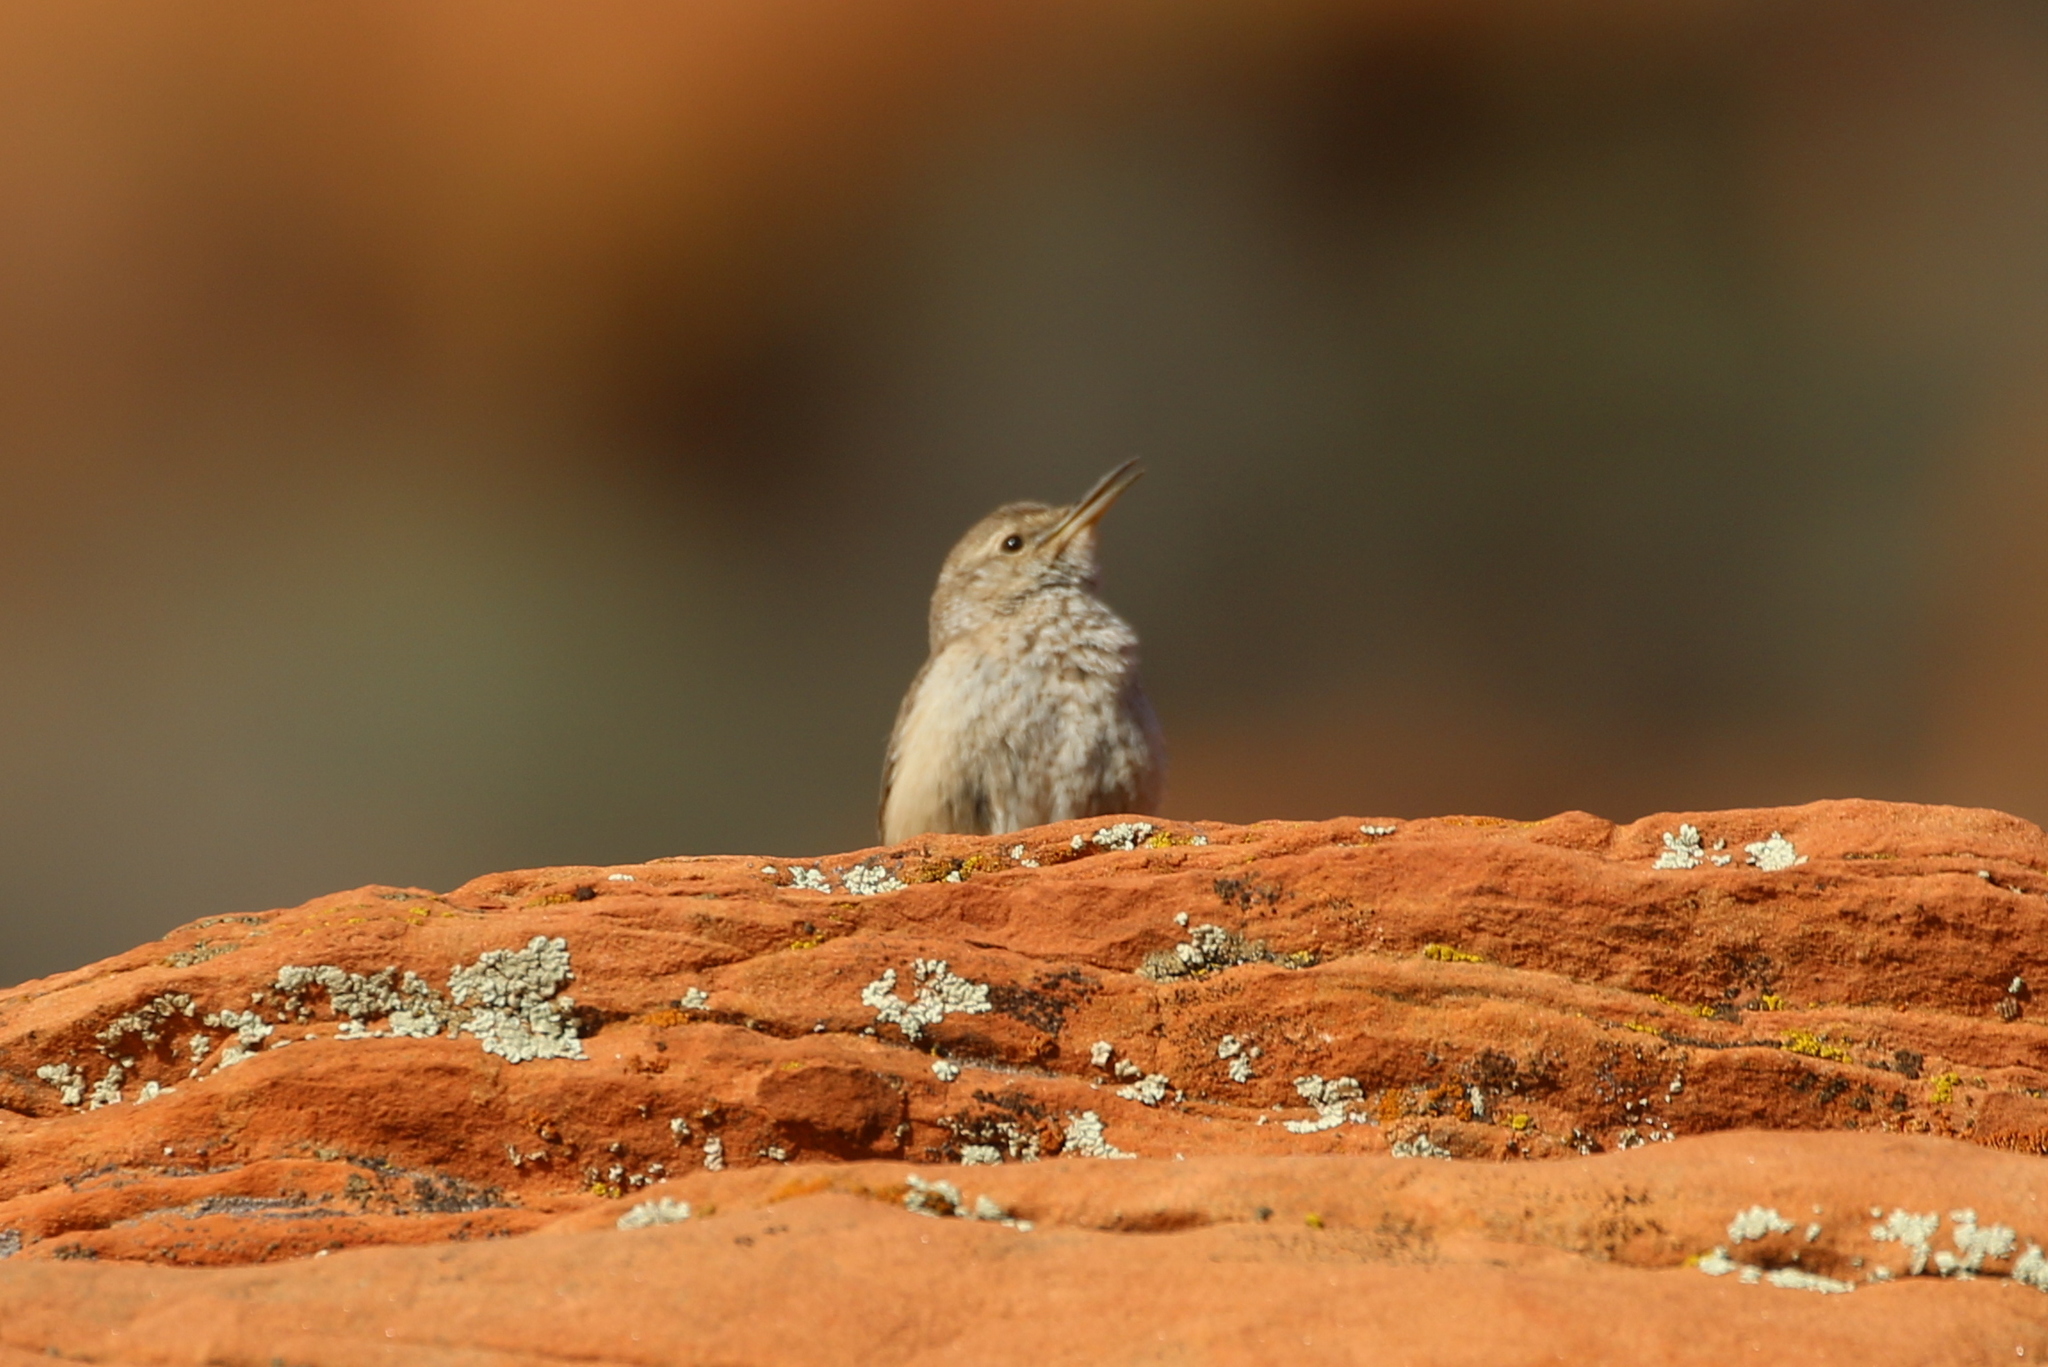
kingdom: Animalia
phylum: Chordata
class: Aves
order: Passeriformes
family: Troglodytidae
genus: Salpinctes
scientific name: Salpinctes obsoletus
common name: Rock wren
